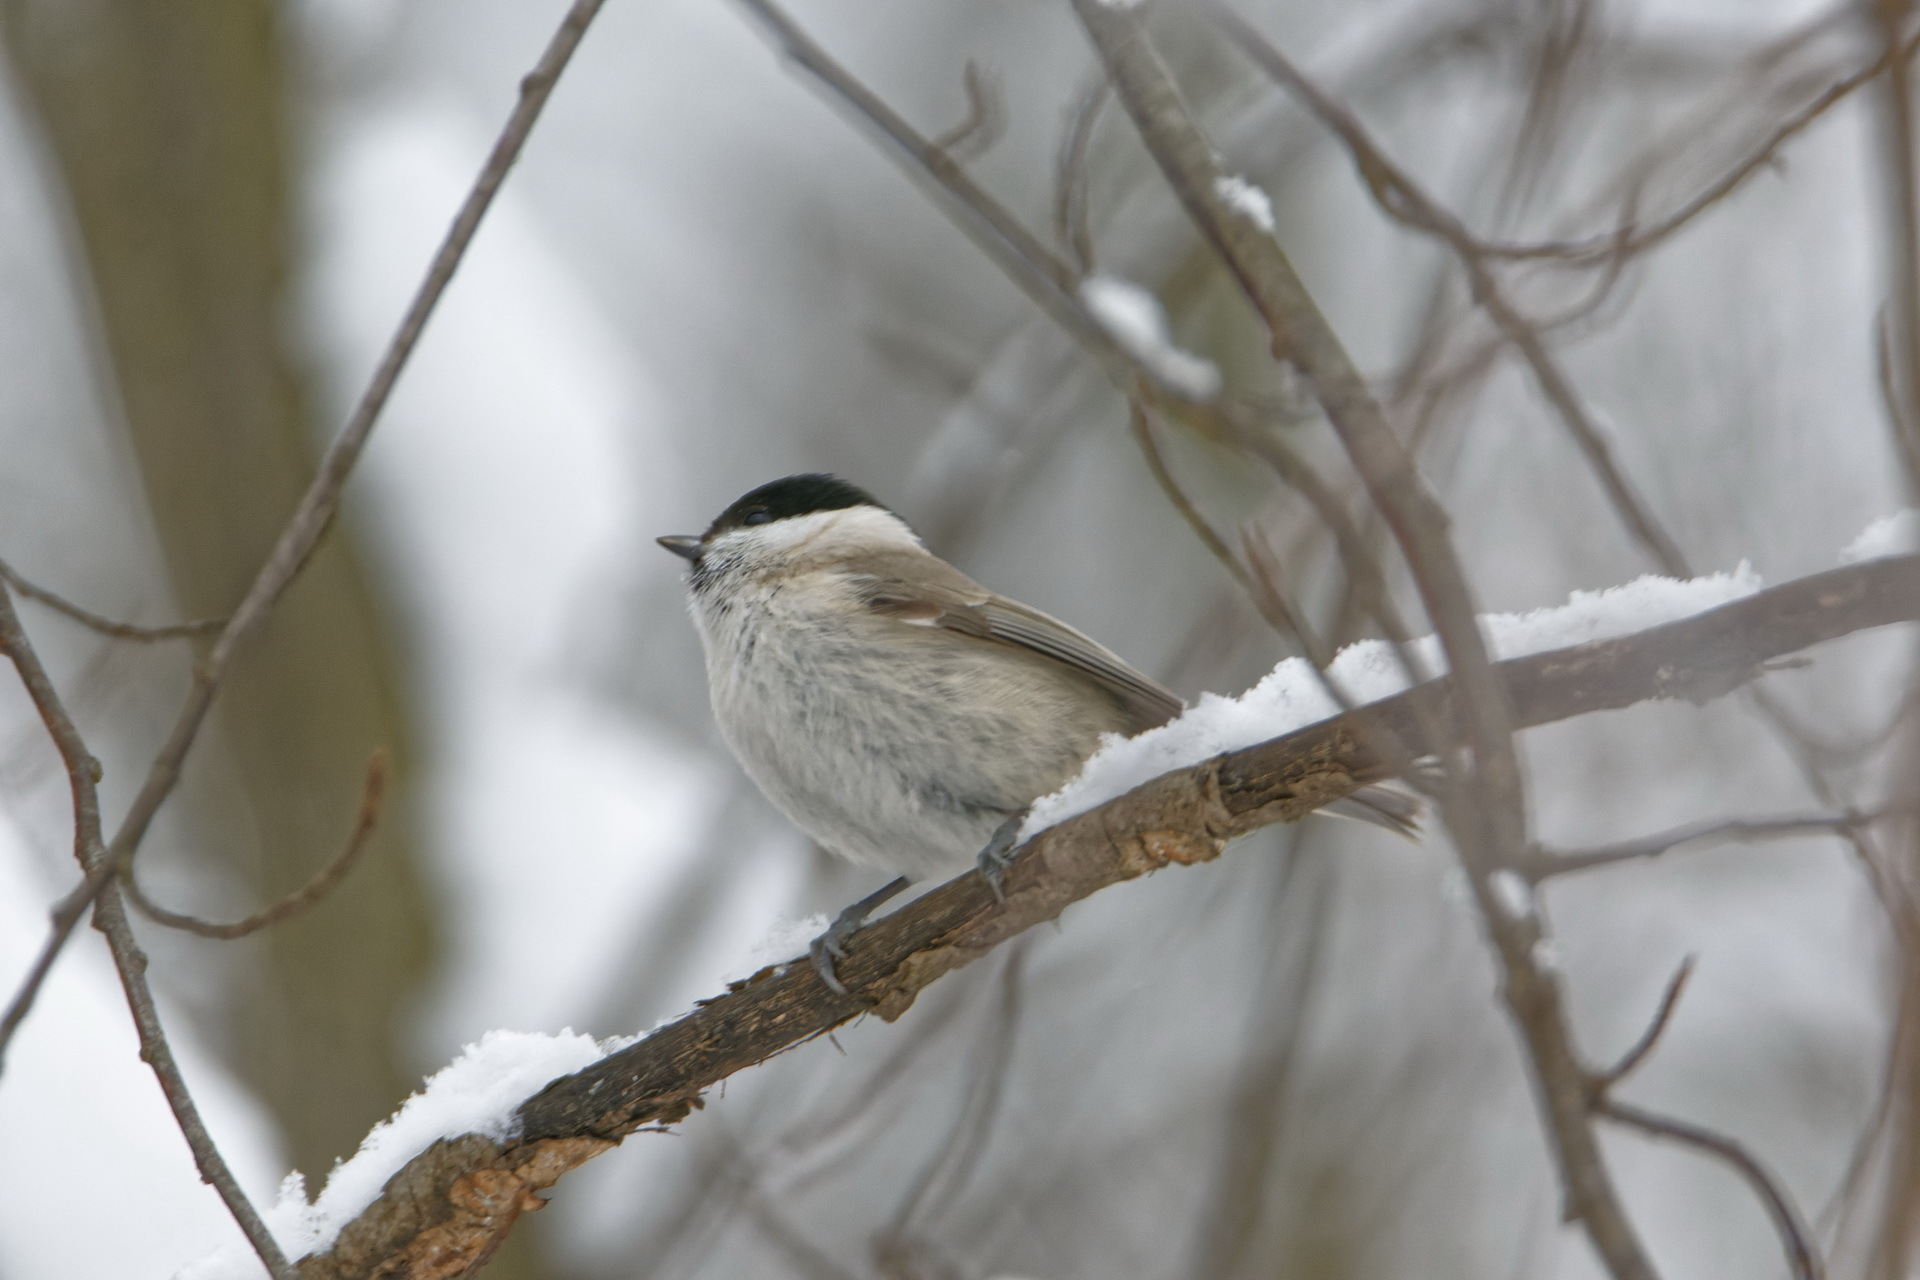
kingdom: Animalia
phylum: Chordata
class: Aves
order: Passeriformes
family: Paridae
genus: Poecile
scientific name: Poecile palustris
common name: Marsh tit
